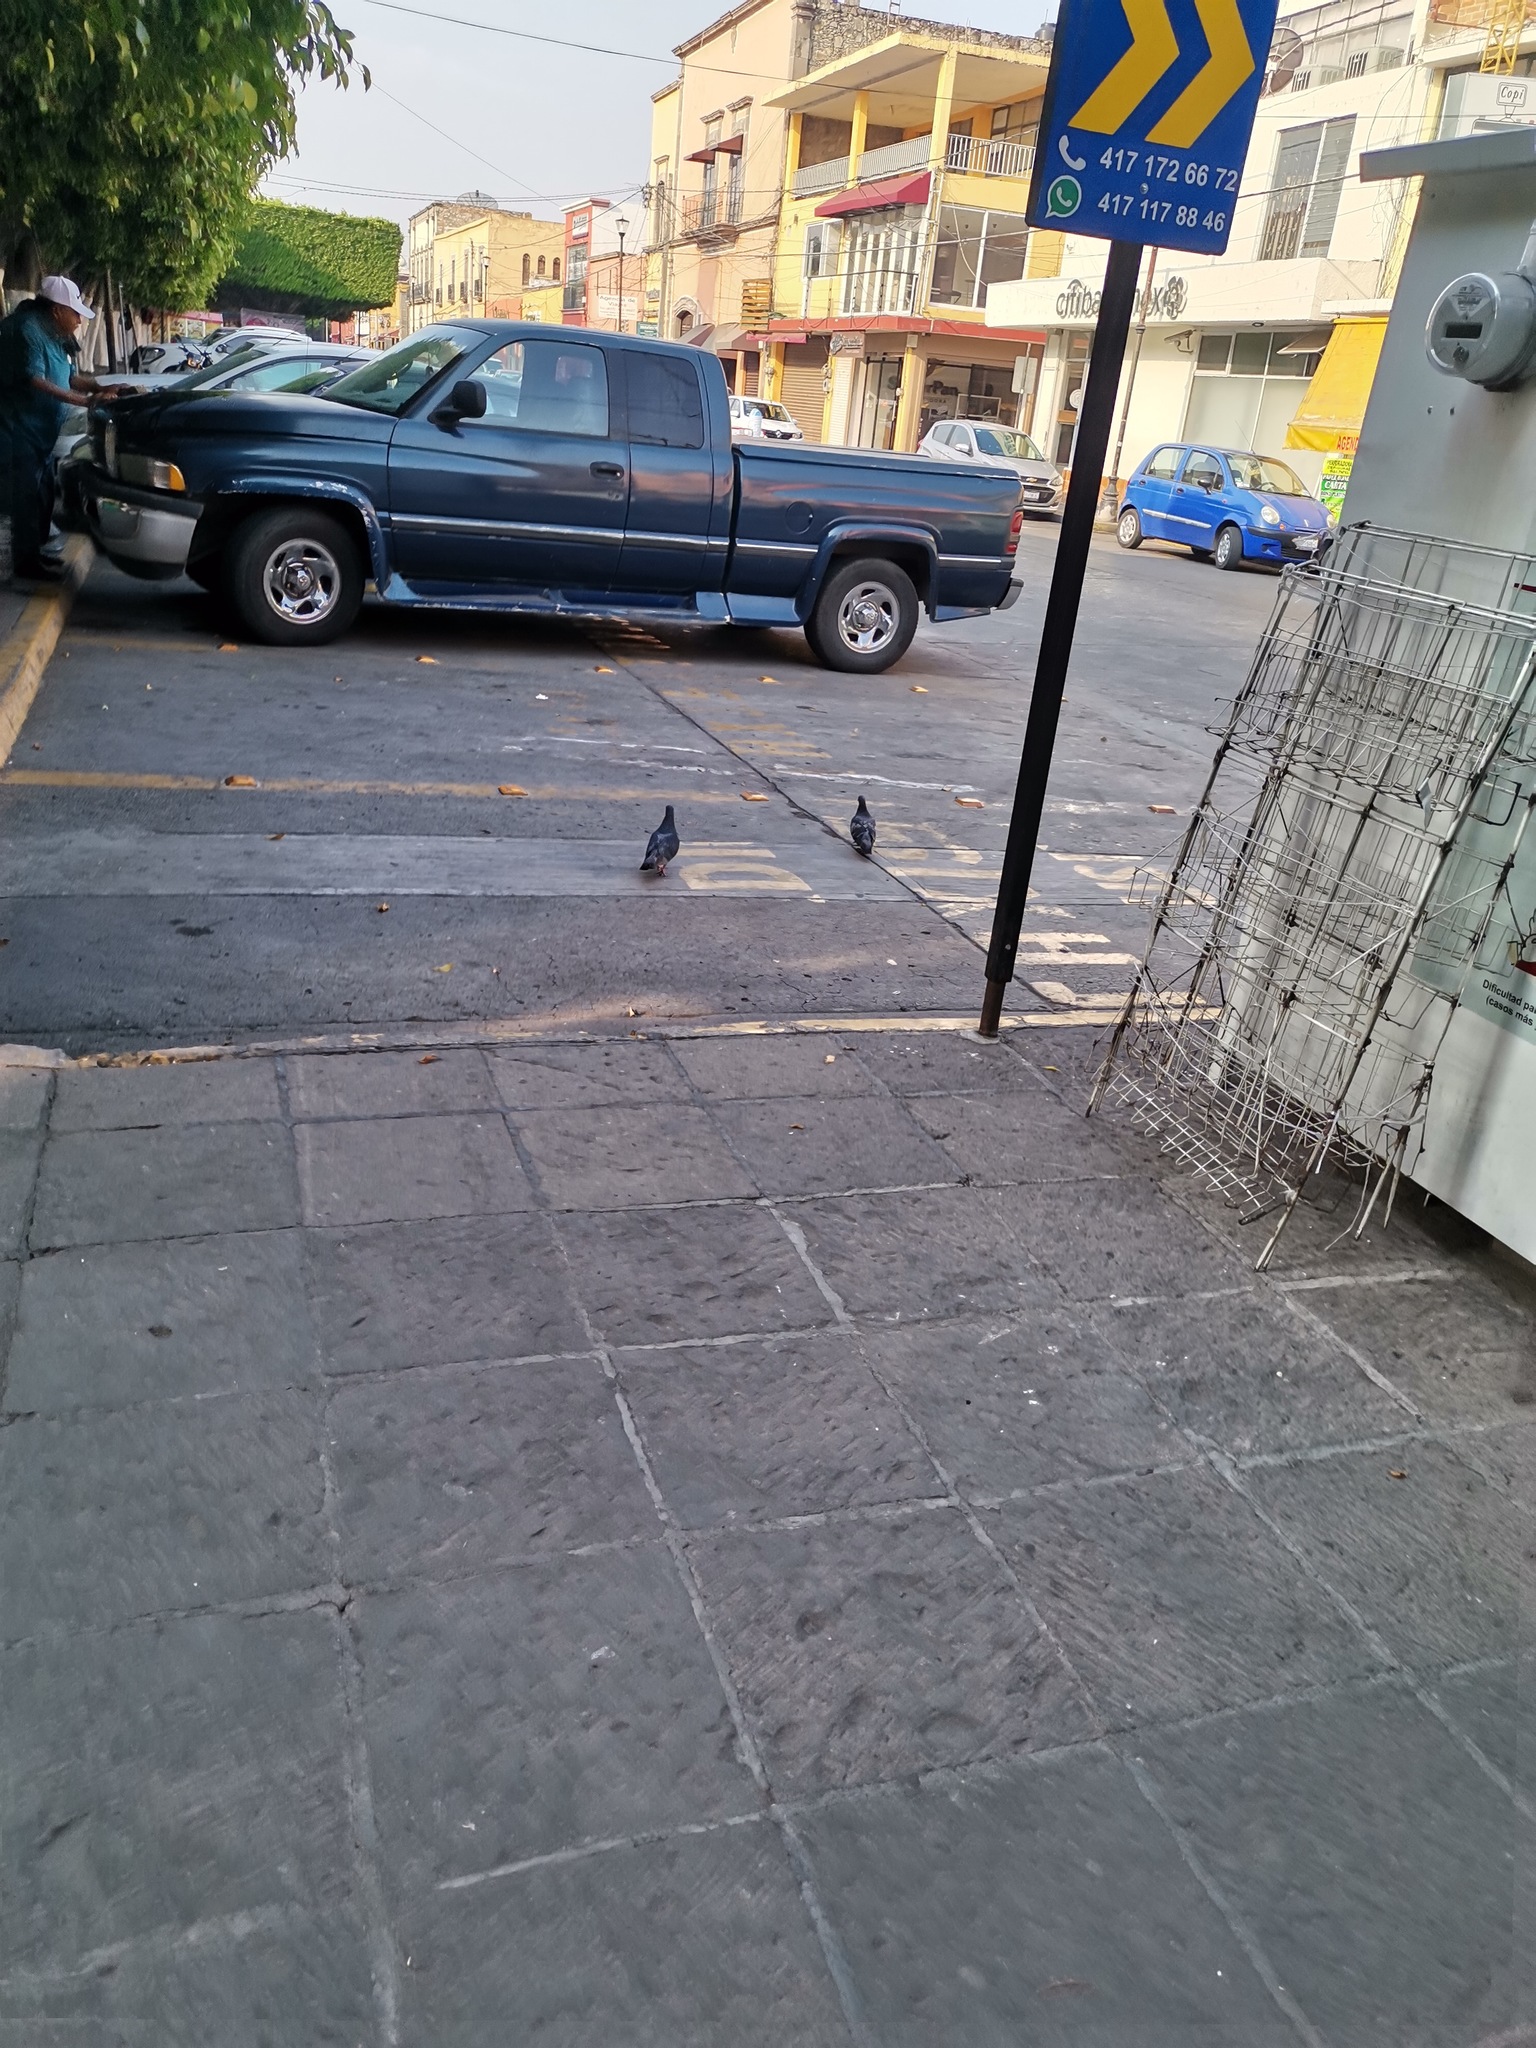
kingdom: Animalia
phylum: Chordata
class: Aves
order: Columbiformes
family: Columbidae
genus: Columba
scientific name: Columba livia
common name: Rock pigeon
